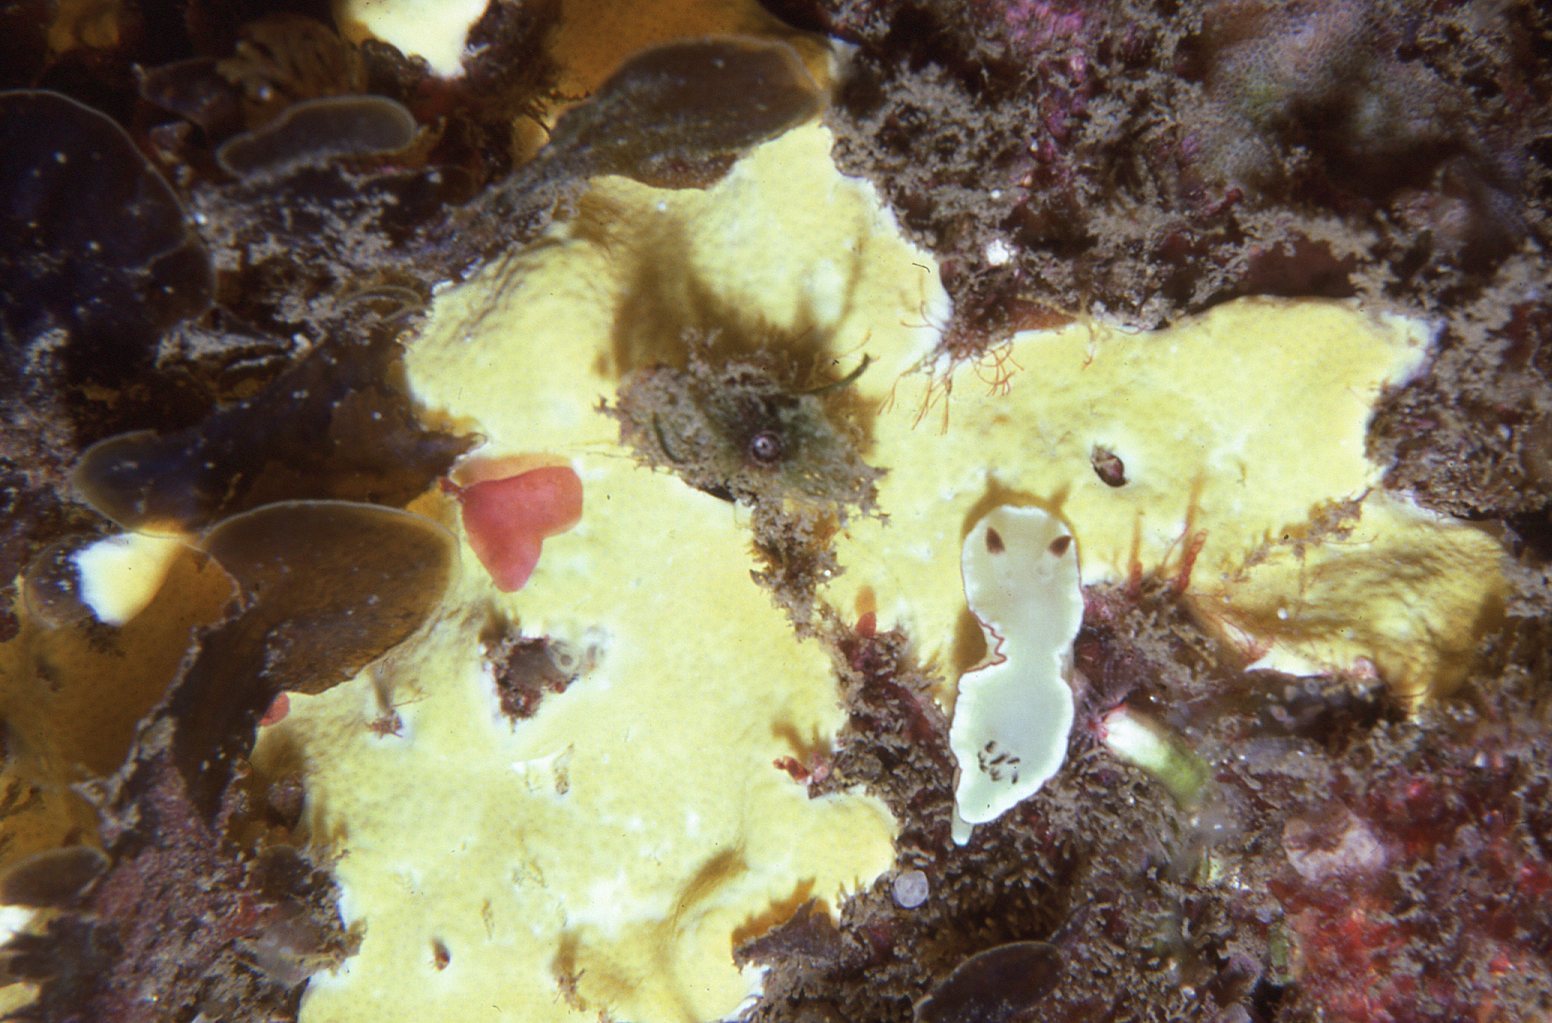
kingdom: Animalia
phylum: Mollusca
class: Gastropoda
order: Nudibranchia
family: Chromodorididae
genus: Glossodoris
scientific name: Glossodoris angasi
